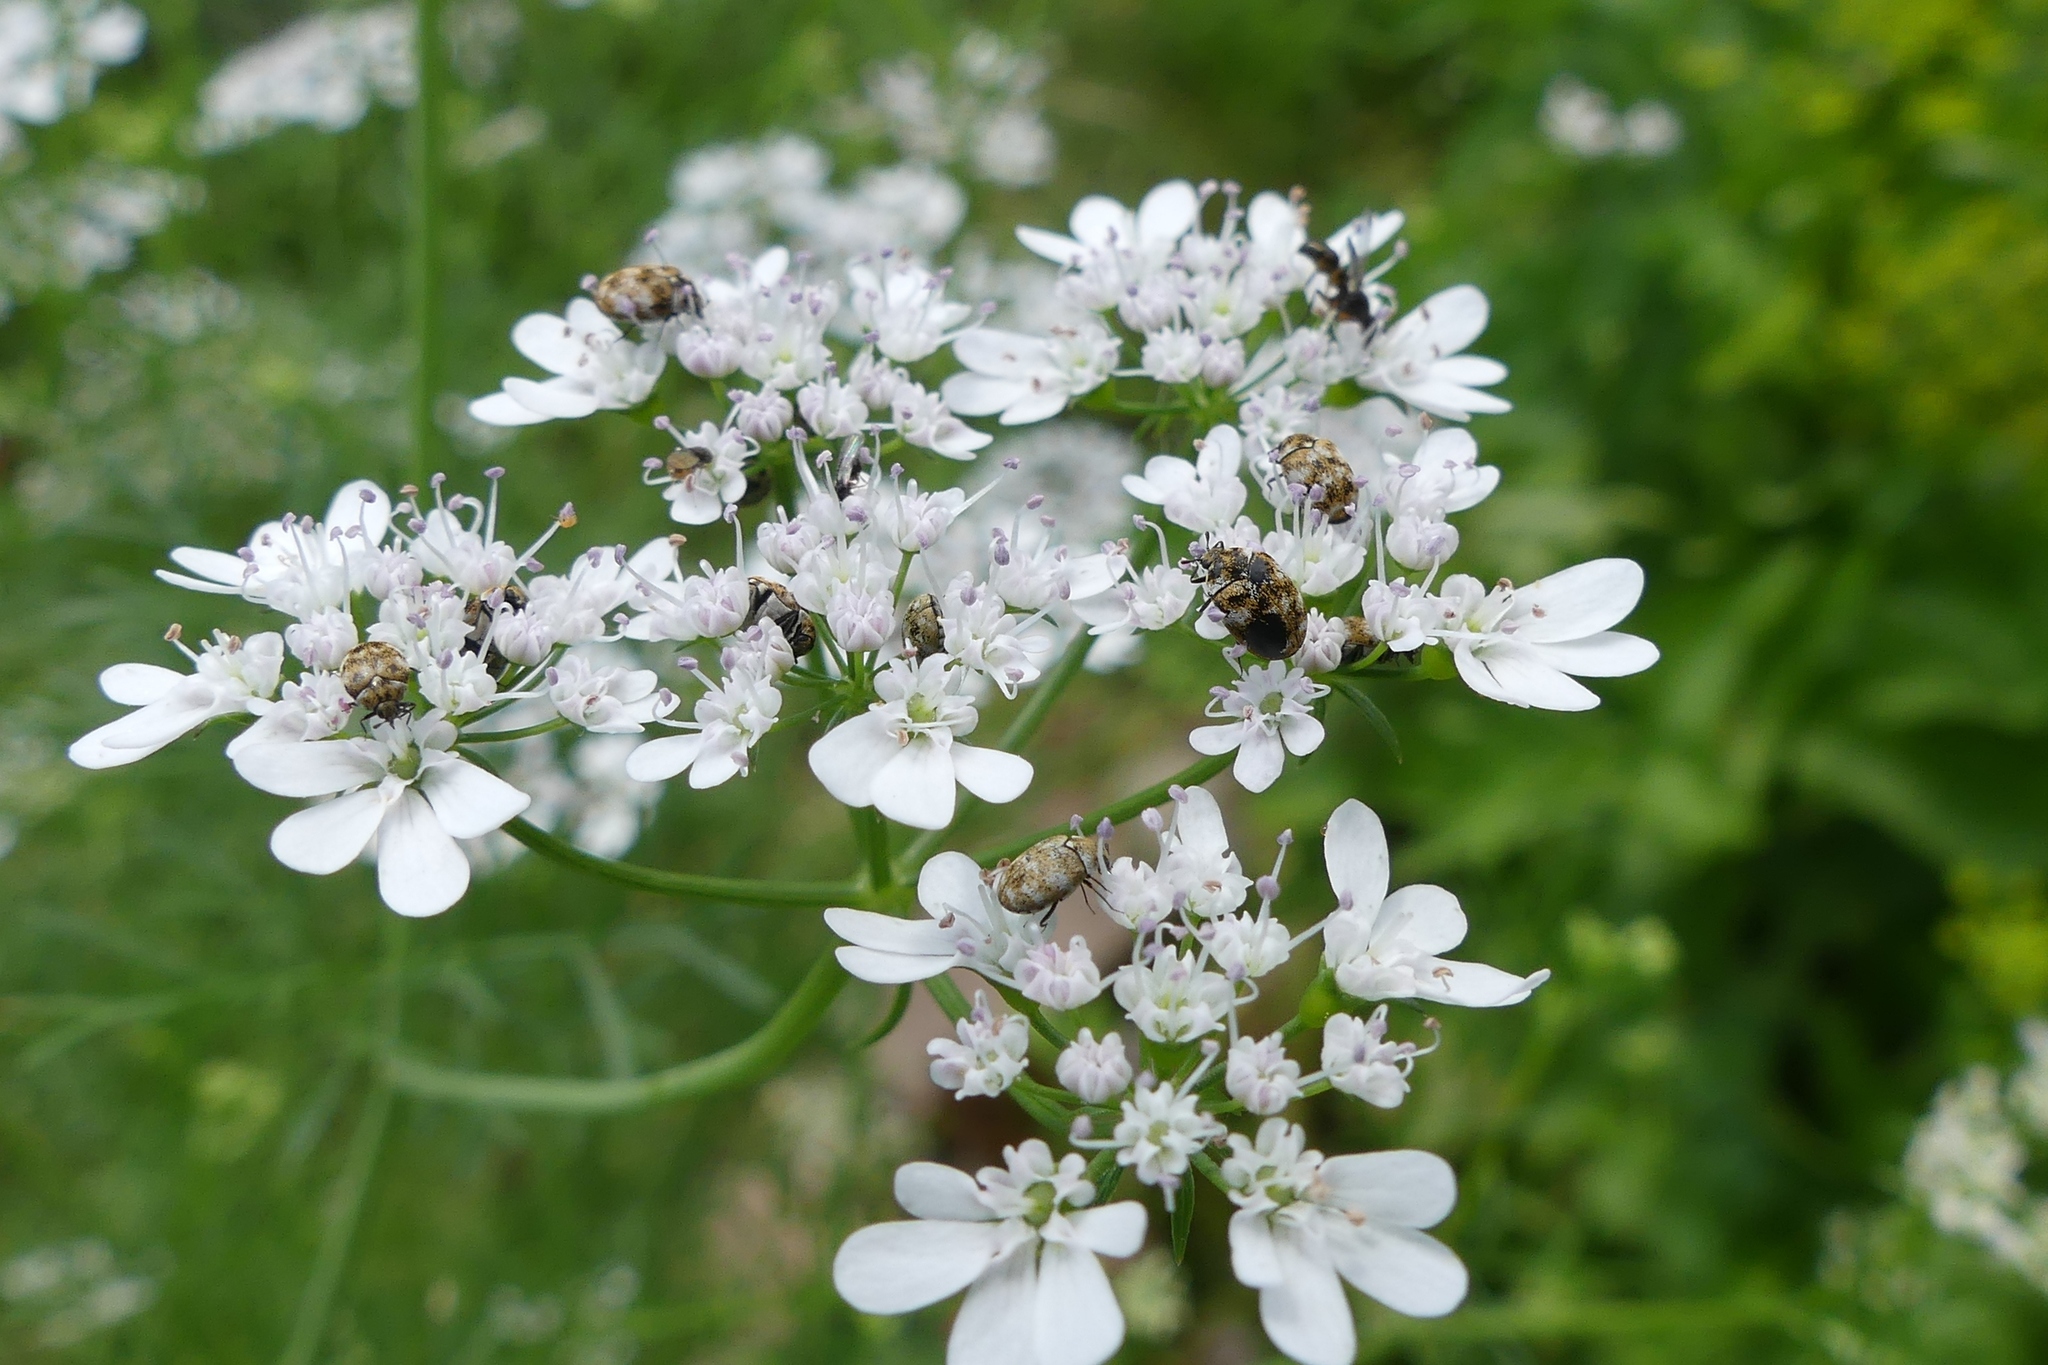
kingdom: Animalia
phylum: Arthropoda
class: Insecta
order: Coleoptera
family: Dermestidae
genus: Anthrenus
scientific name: Anthrenus verbasci
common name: Varied carpet beetle
